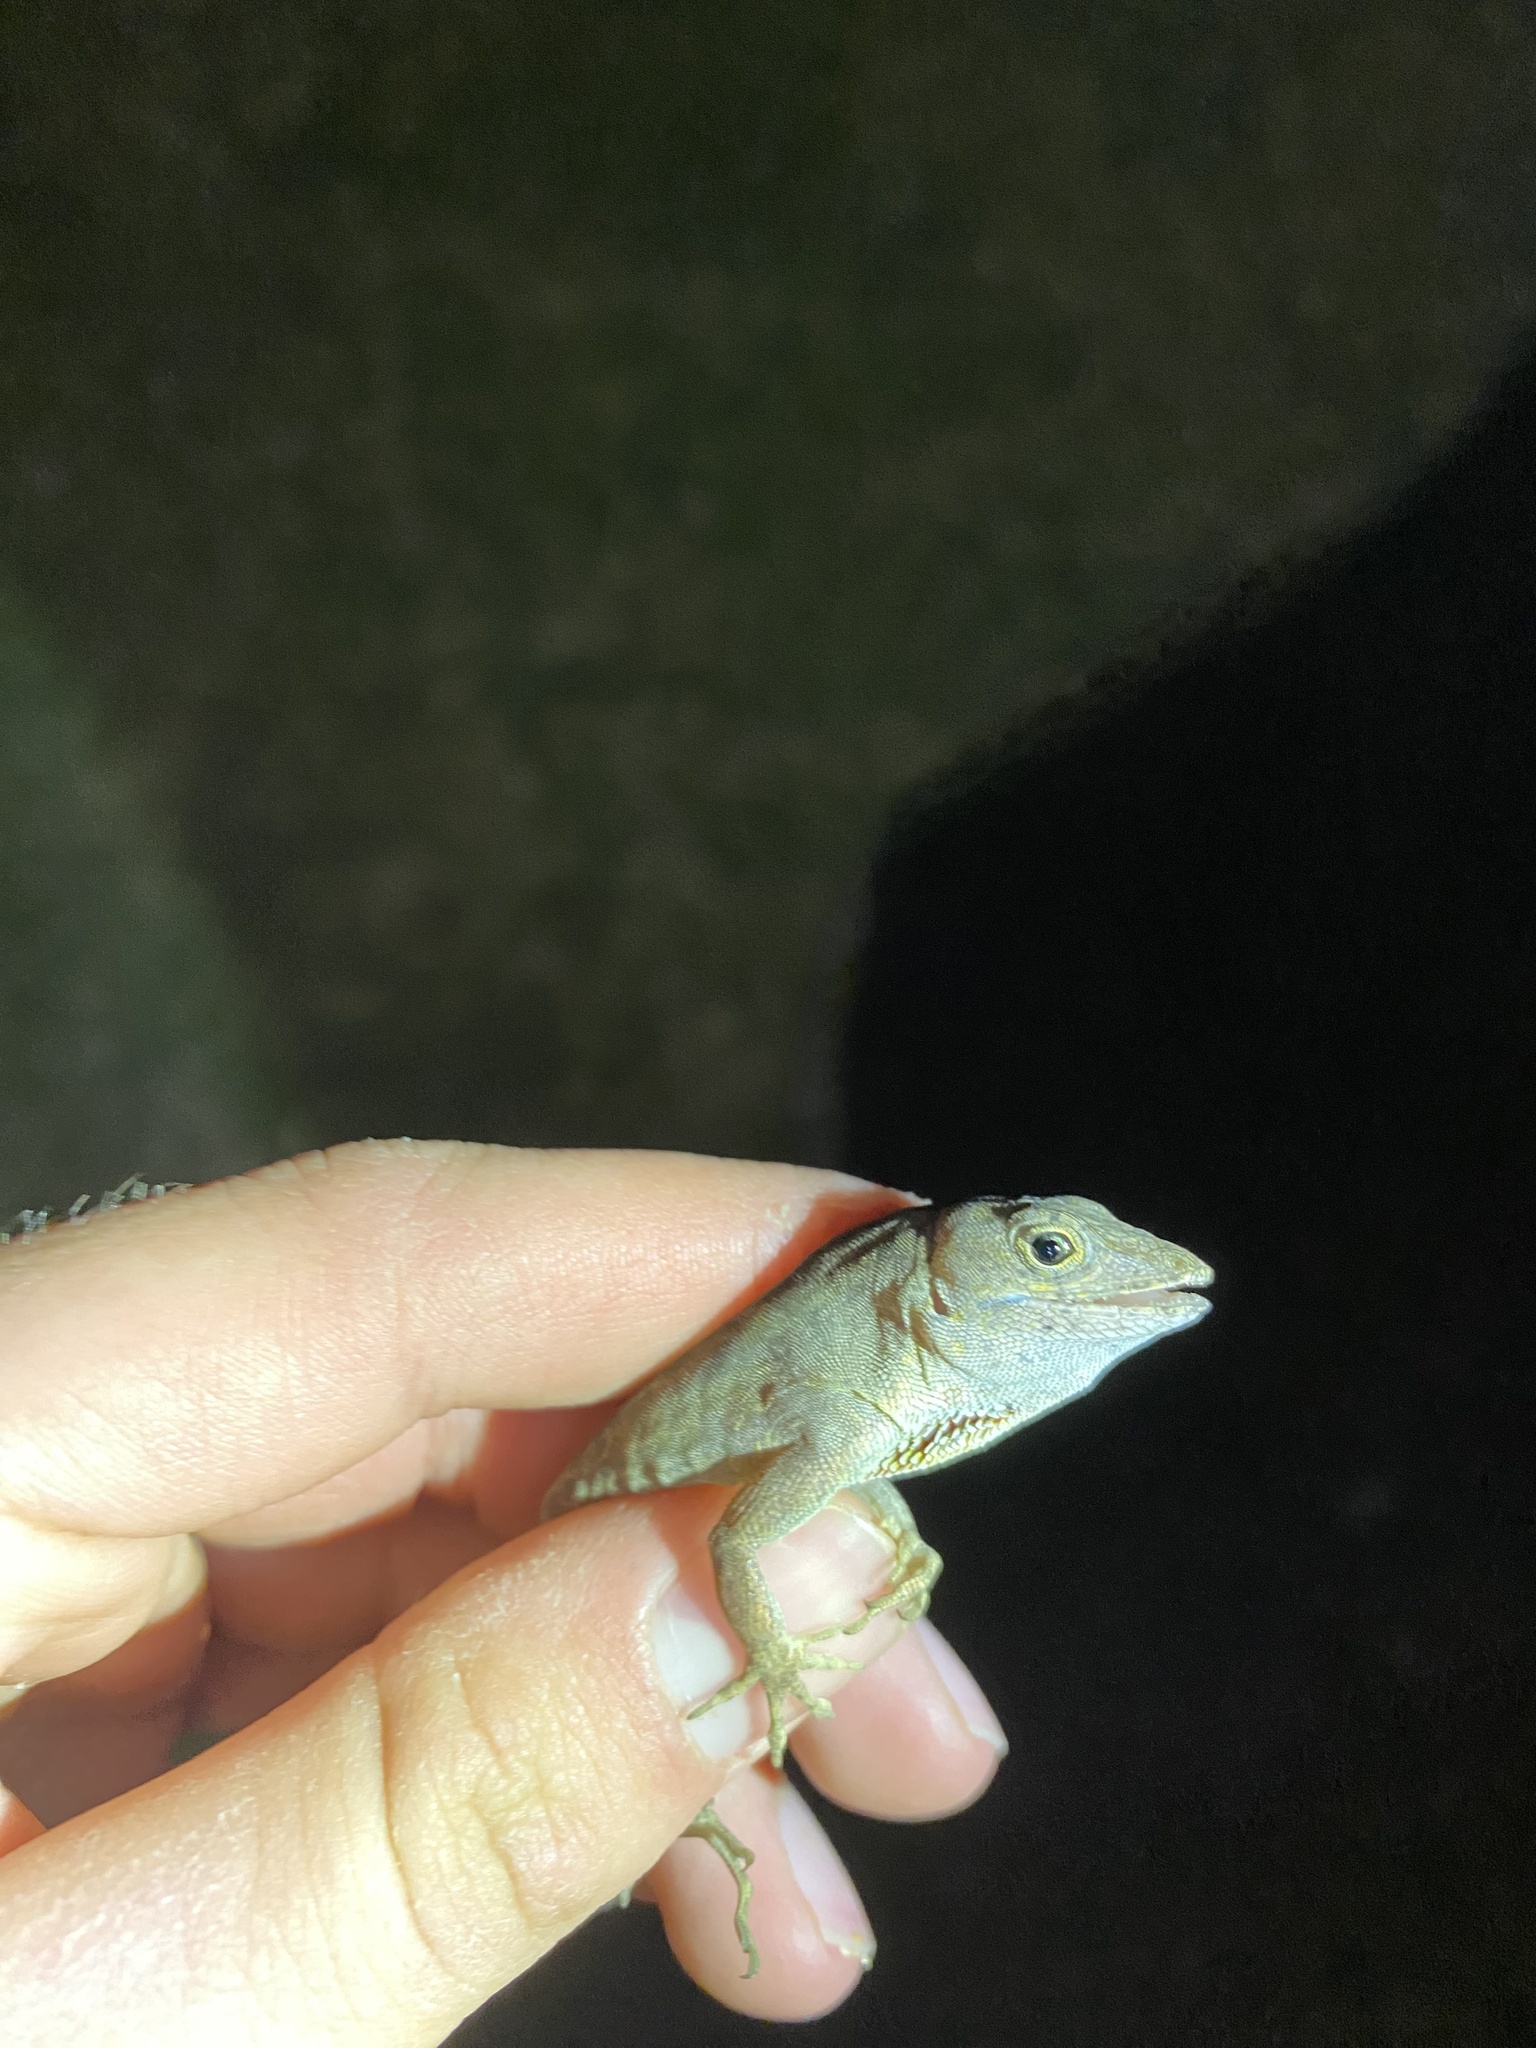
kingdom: Animalia
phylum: Chordata
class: Squamata
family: Dactyloidae
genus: Anolis
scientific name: Anolis sagrei
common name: Brown anole
